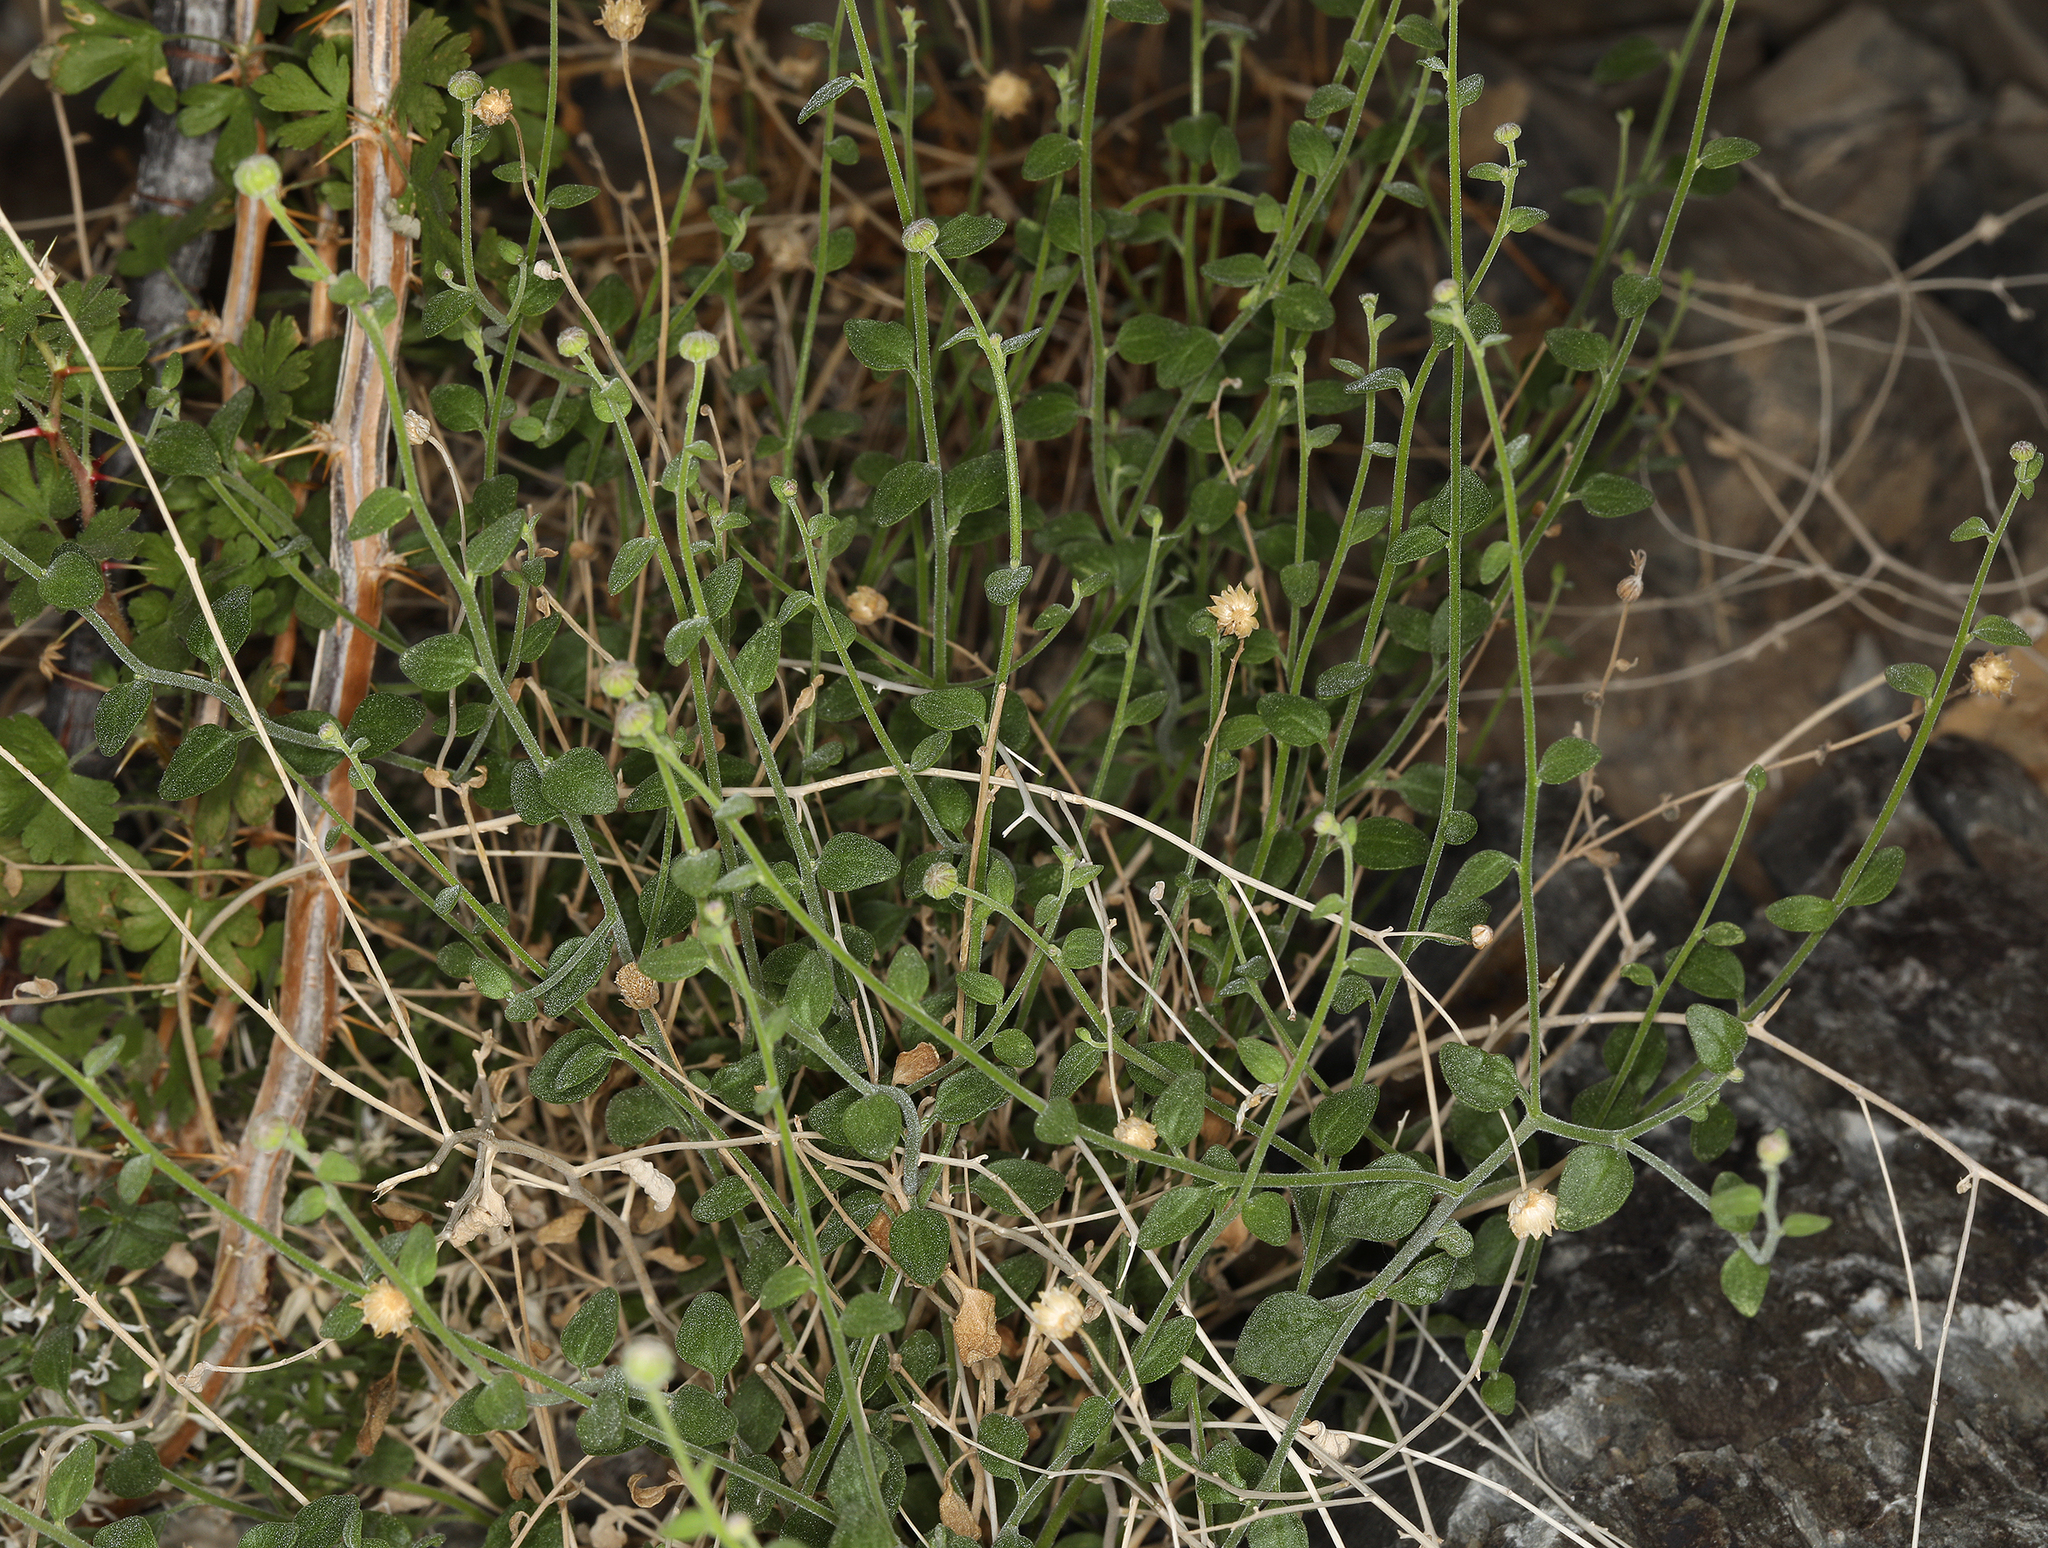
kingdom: Plantae
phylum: Tracheophyta
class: Magnoliopsida
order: Asterales
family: Asteraceae
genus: Laphamia
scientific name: Laphamia megalocephala
